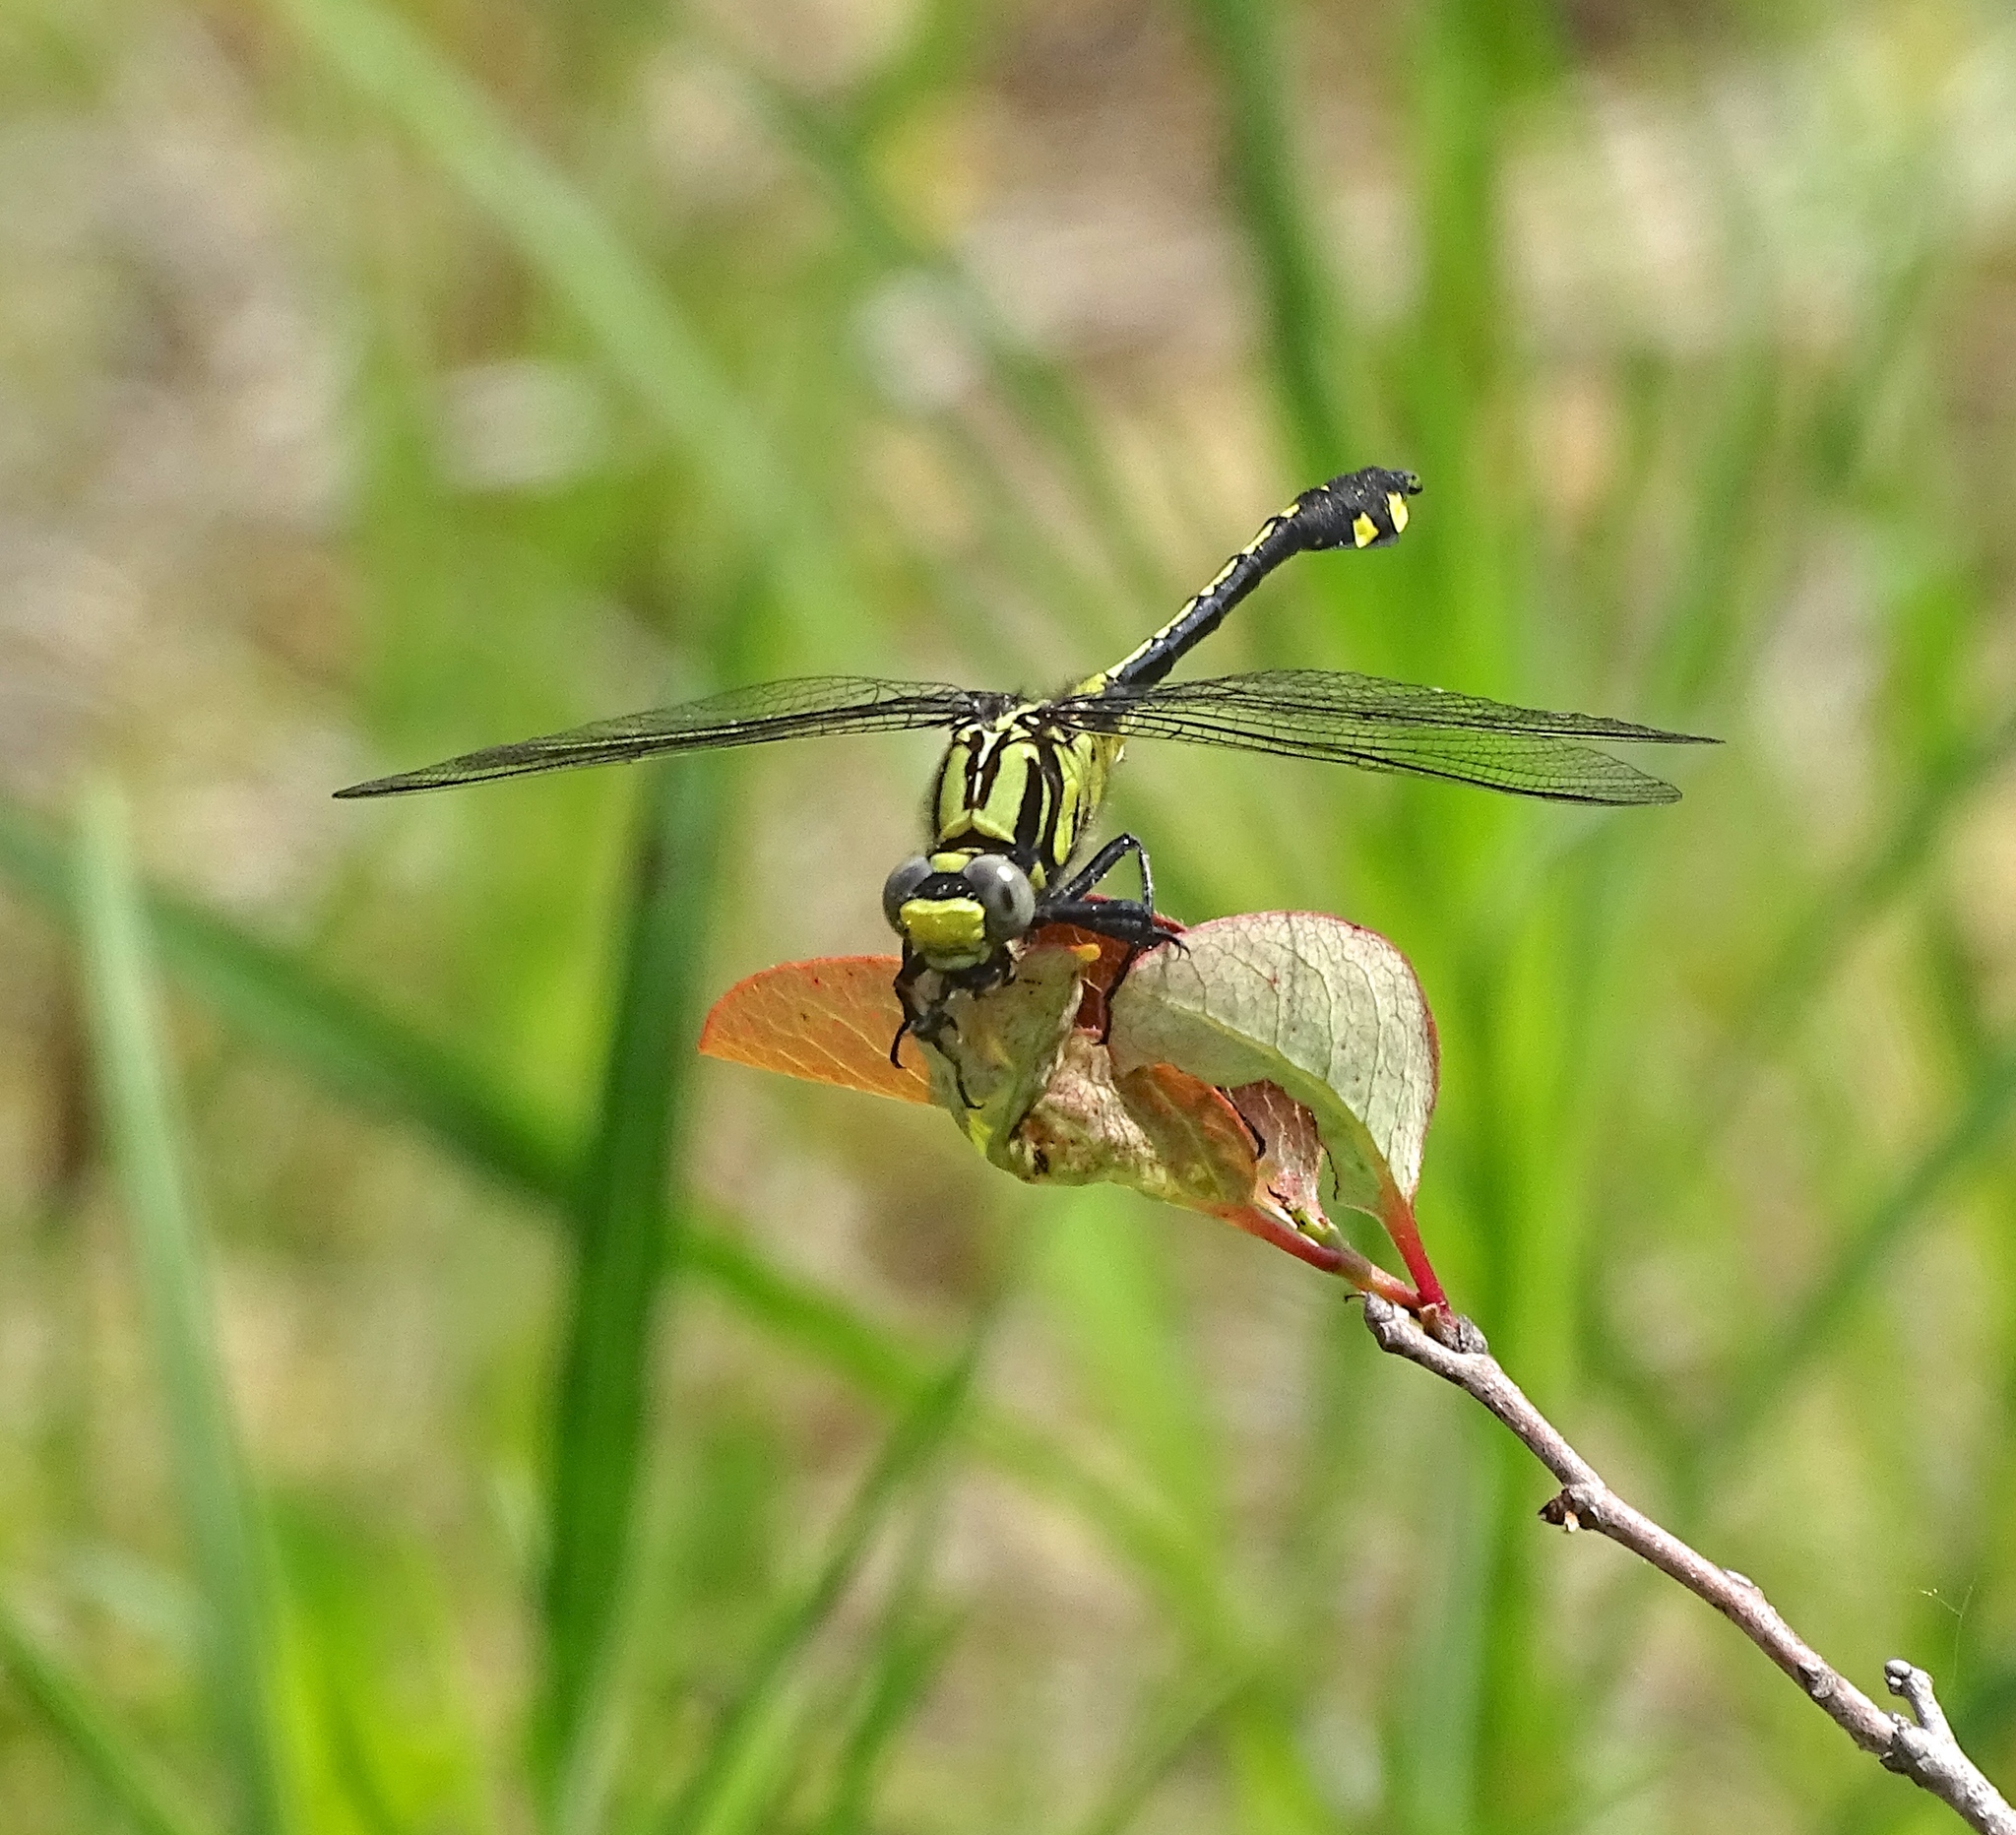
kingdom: Animalia
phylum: Arthropoda
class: Insecta
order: Odonata
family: Gomphidae
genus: Gomphurus
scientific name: Gomphurus fraternus
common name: Midland clubtail
